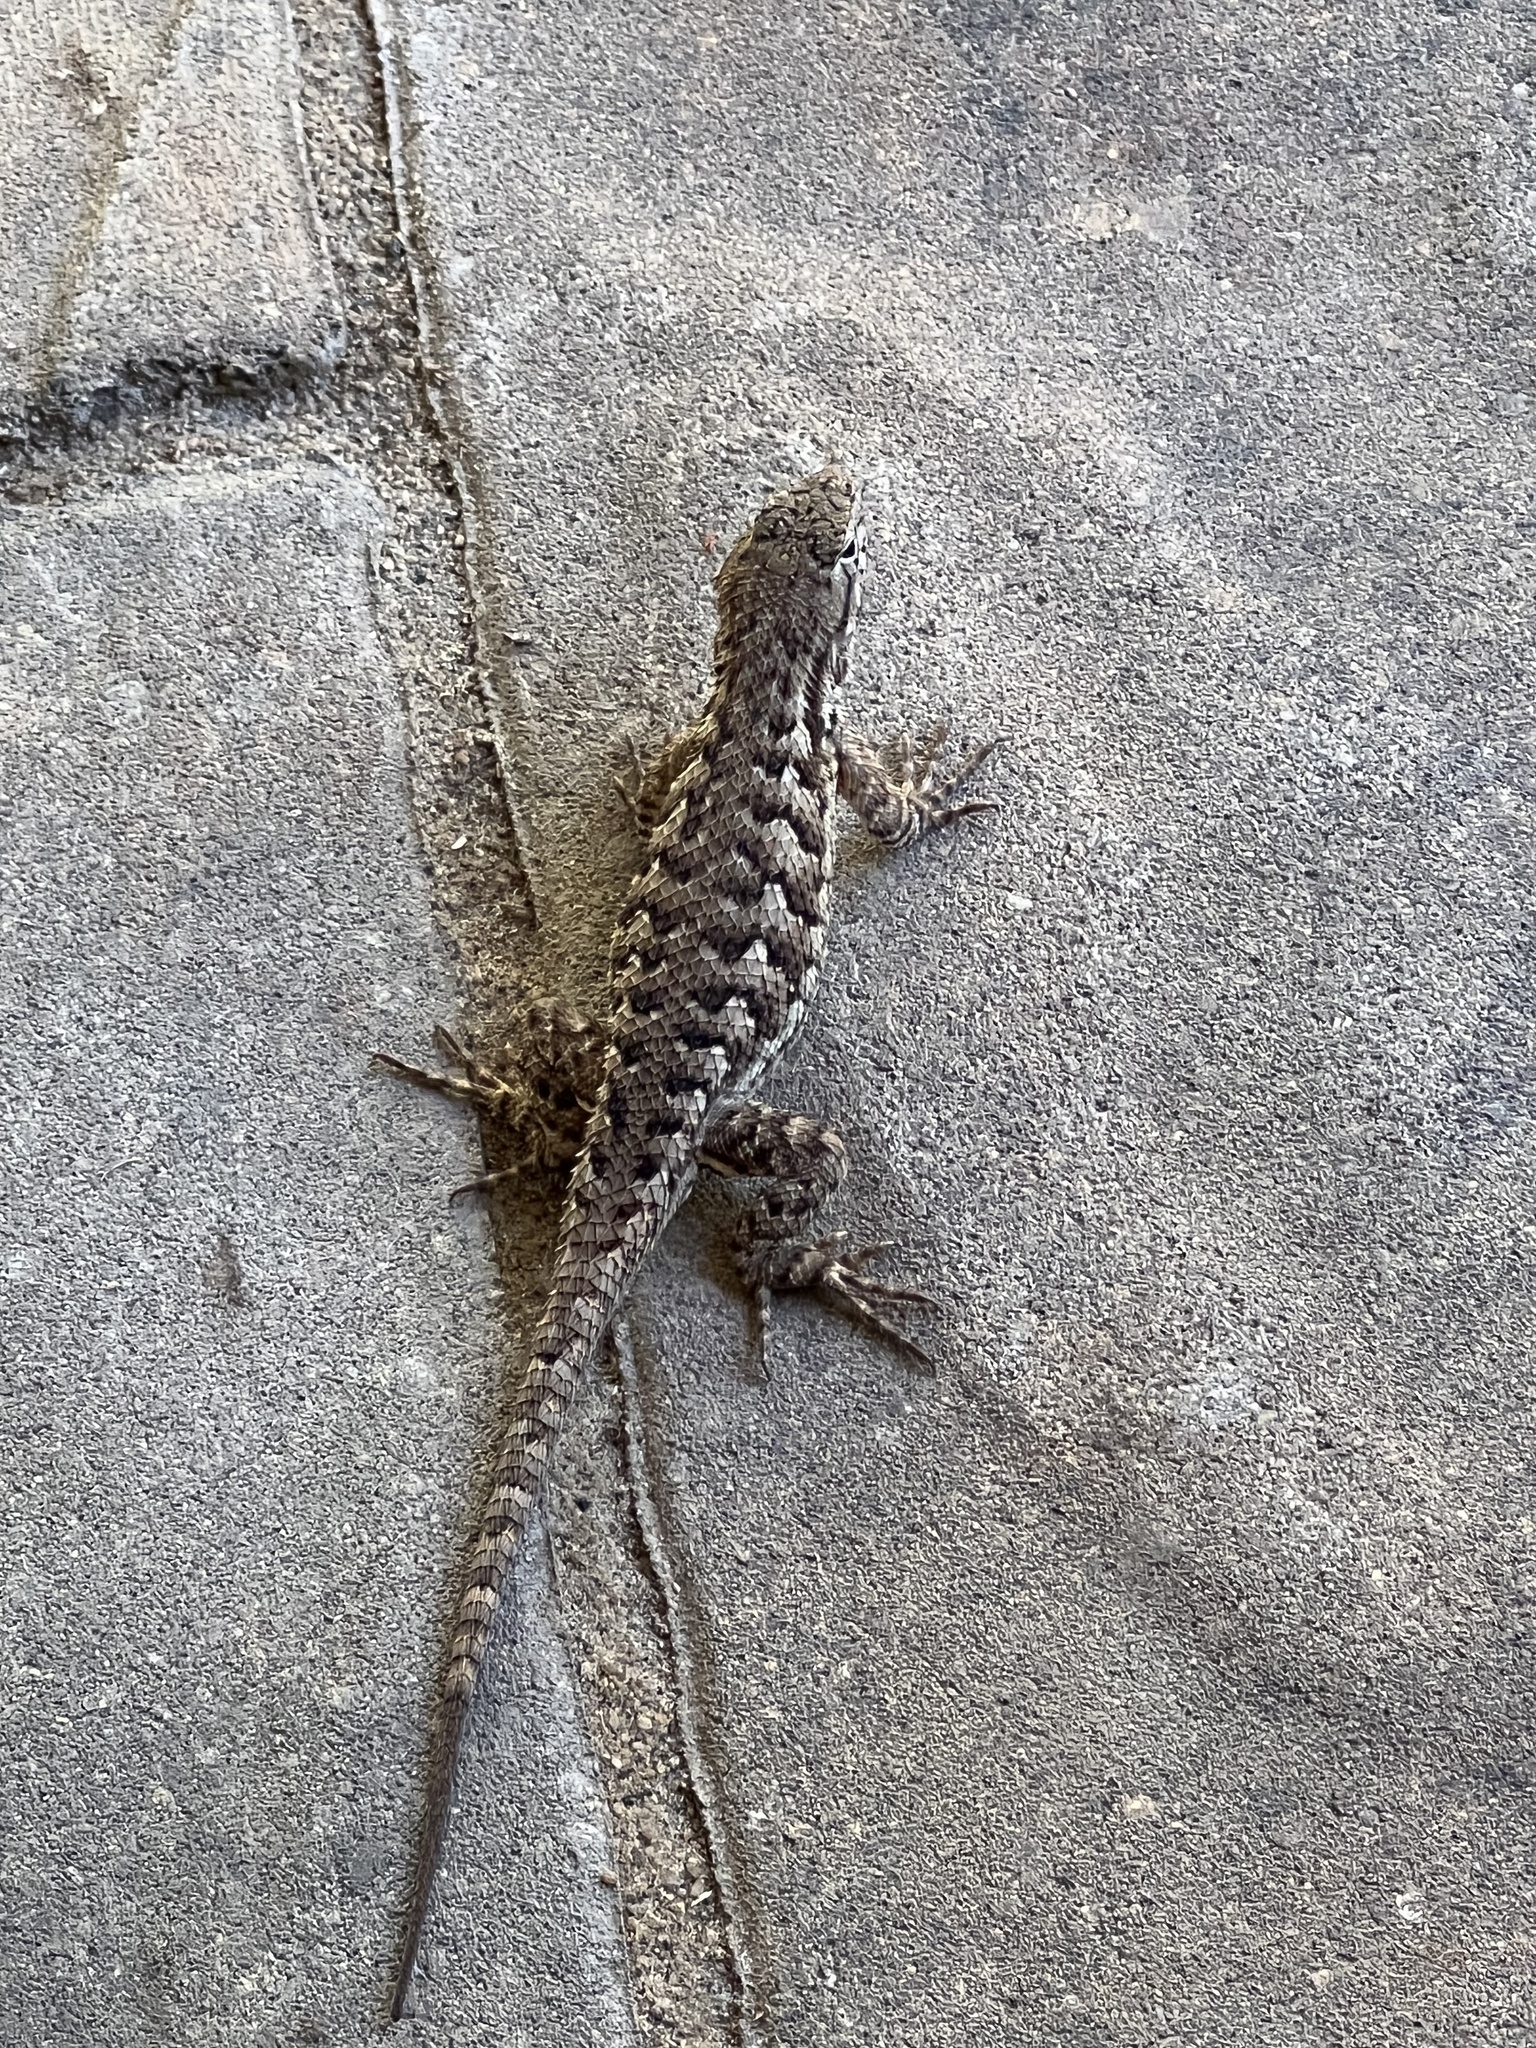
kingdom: Animalia
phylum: Chordata
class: Squamata
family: Phrynosomatidae
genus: Sceloporus
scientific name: Sceloporus occidentalis
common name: Western fence lizard
